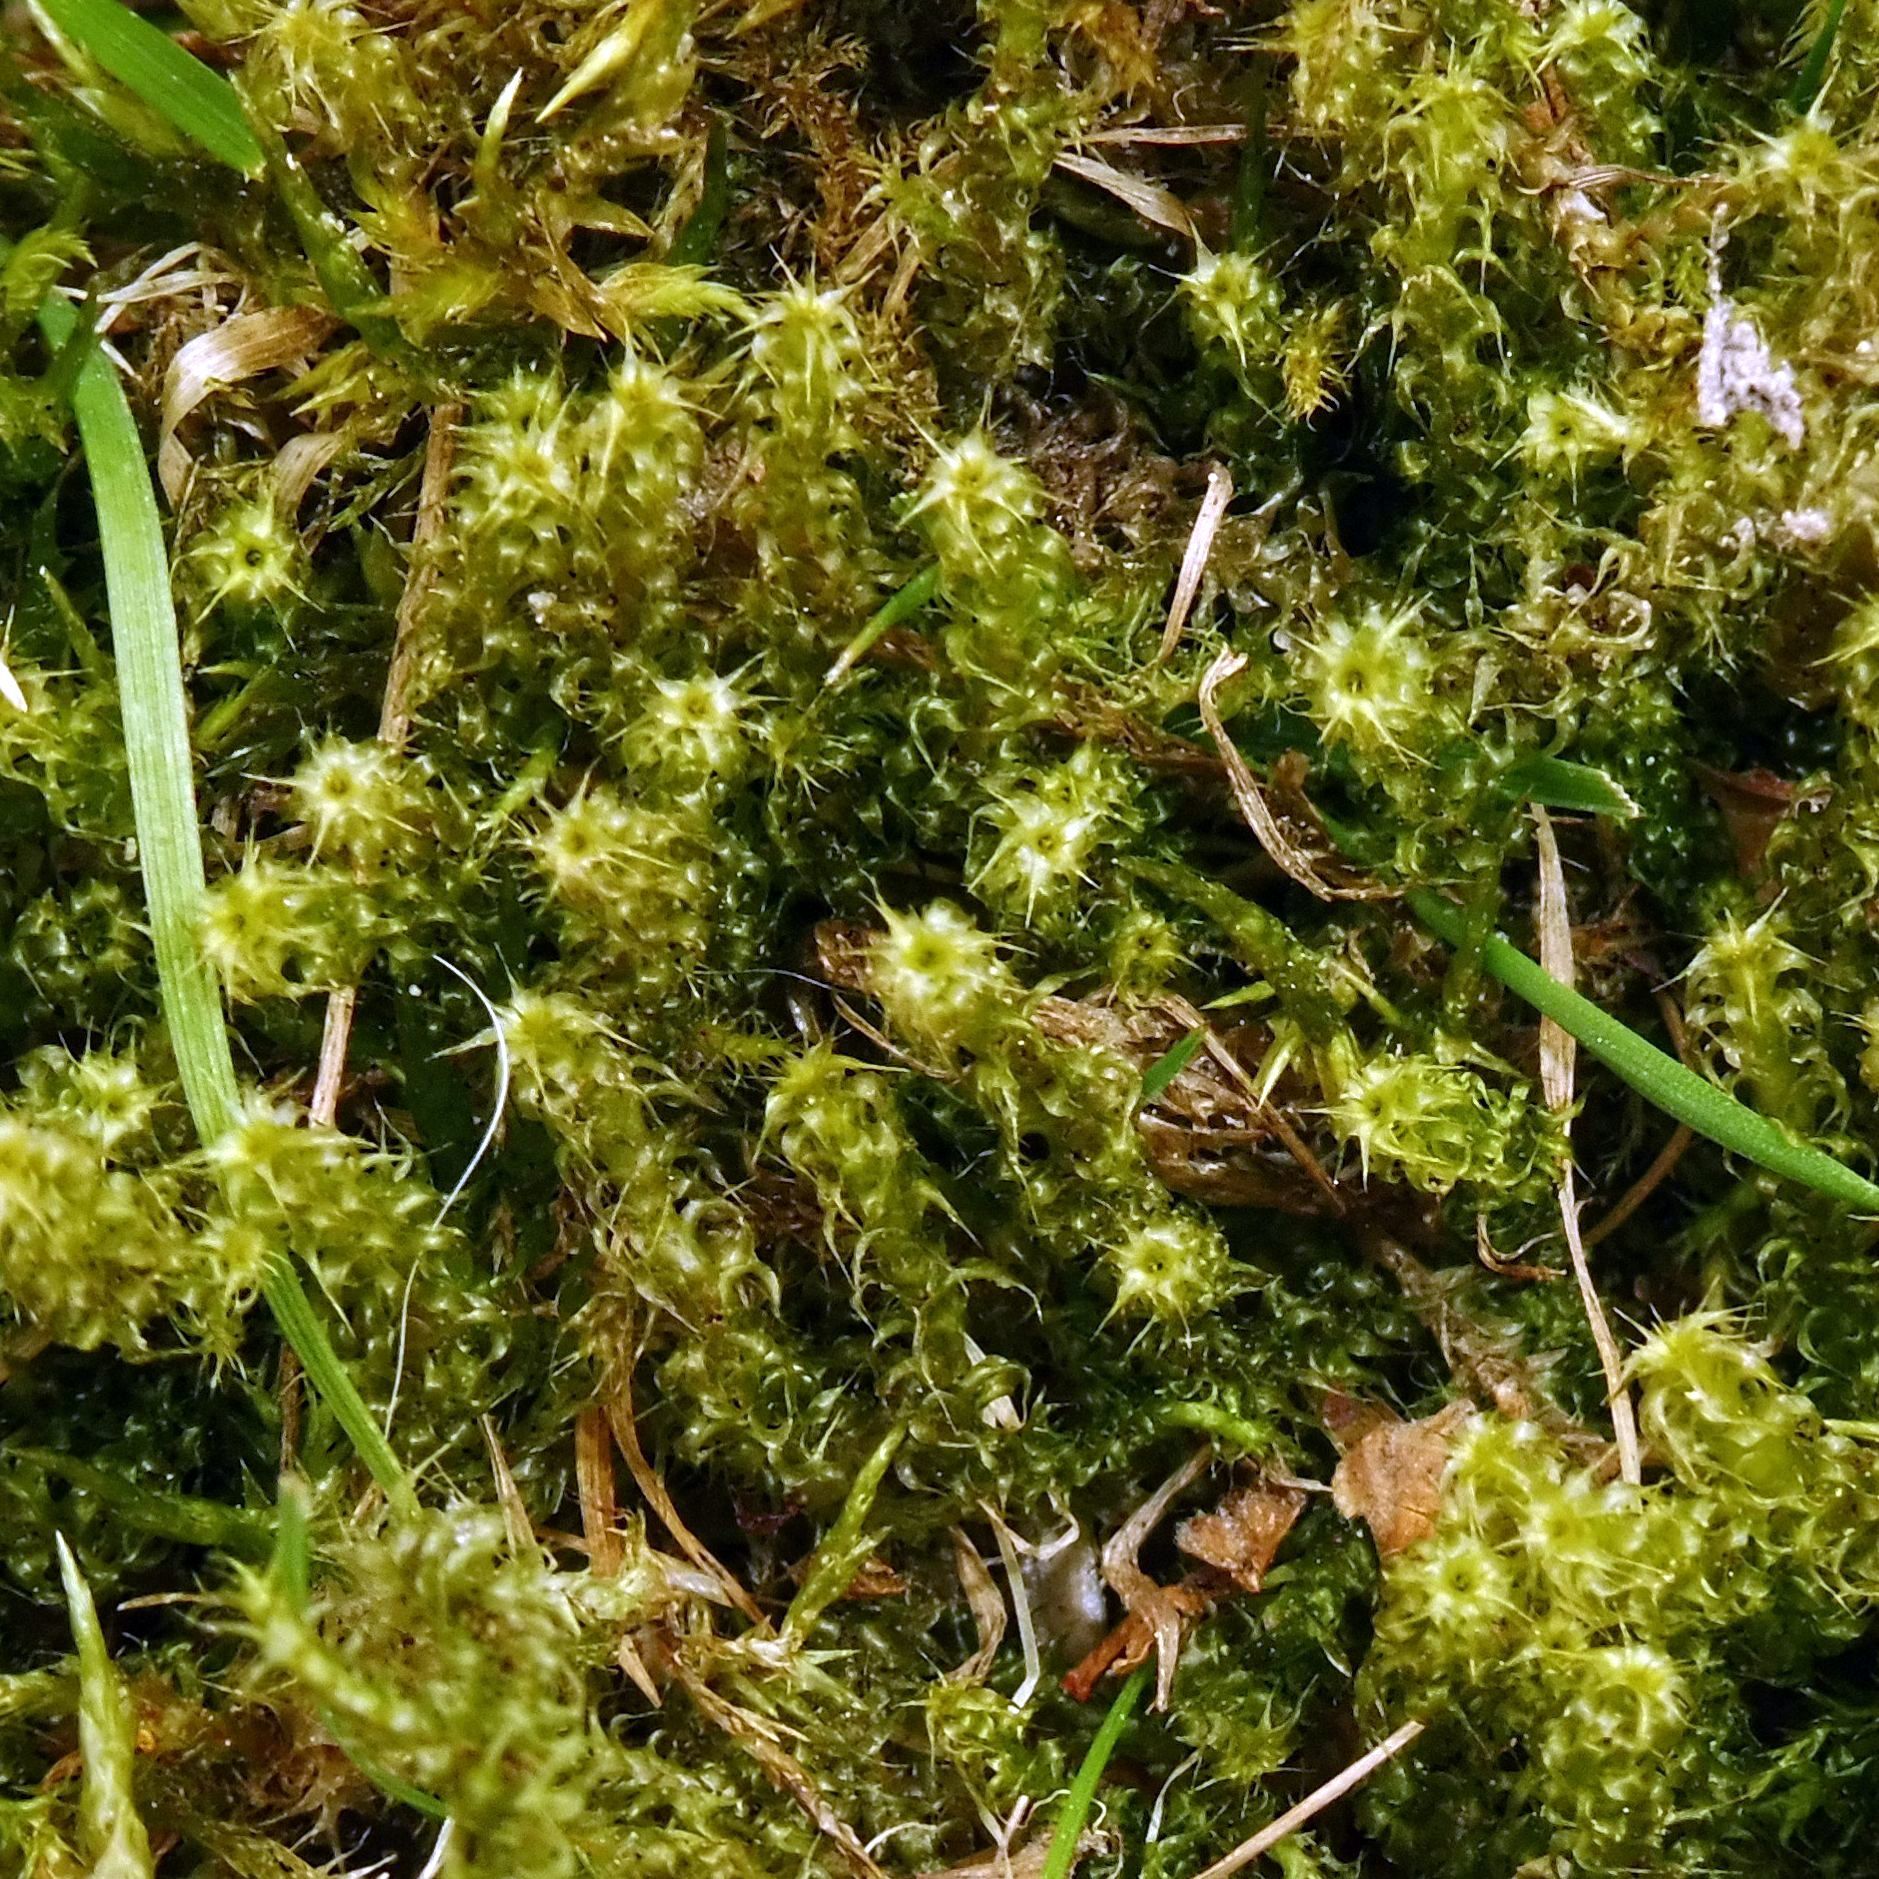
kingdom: Plantae
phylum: Bryophyta
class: Bryopsida
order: Hypnales
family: Hylocomiaceae
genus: Rhytidiadelphus
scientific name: Rhytidiadelphus squarrosus
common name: Springy turf-moss
